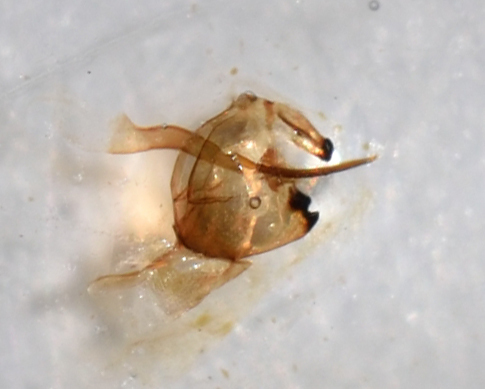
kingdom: Animalia
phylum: Arthropoda
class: Insecta
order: Lepidoptera
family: Pieridae
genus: Leptidea
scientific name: Leptidea sinapis
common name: Wood white
